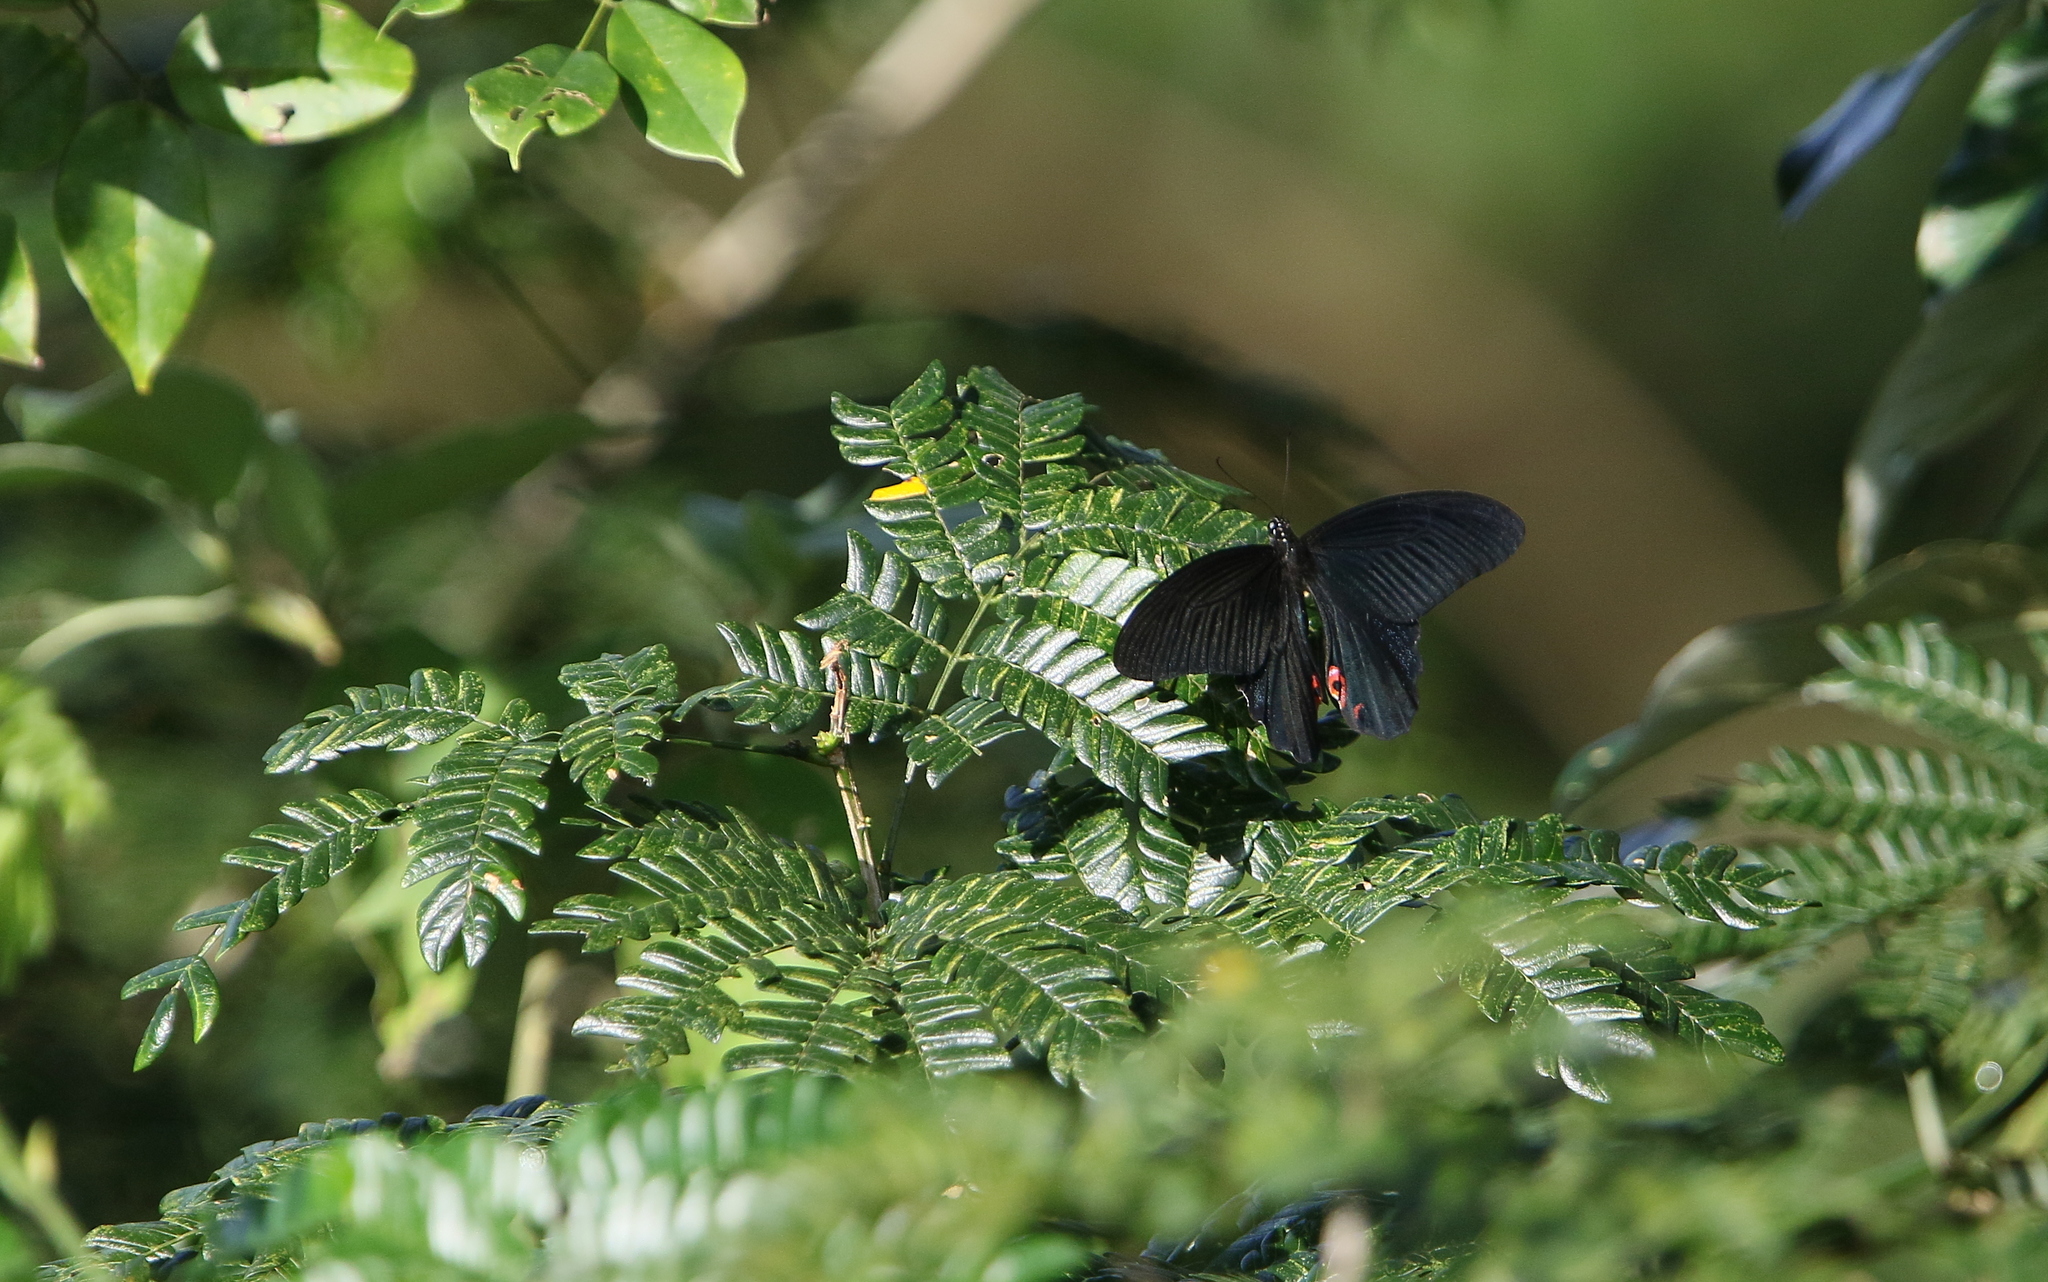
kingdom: Animalia
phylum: Arthropoda
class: Insecta
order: Lepidoptera
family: Papilionidae
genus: Papilio
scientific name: Papilio protenor
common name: Spangle
